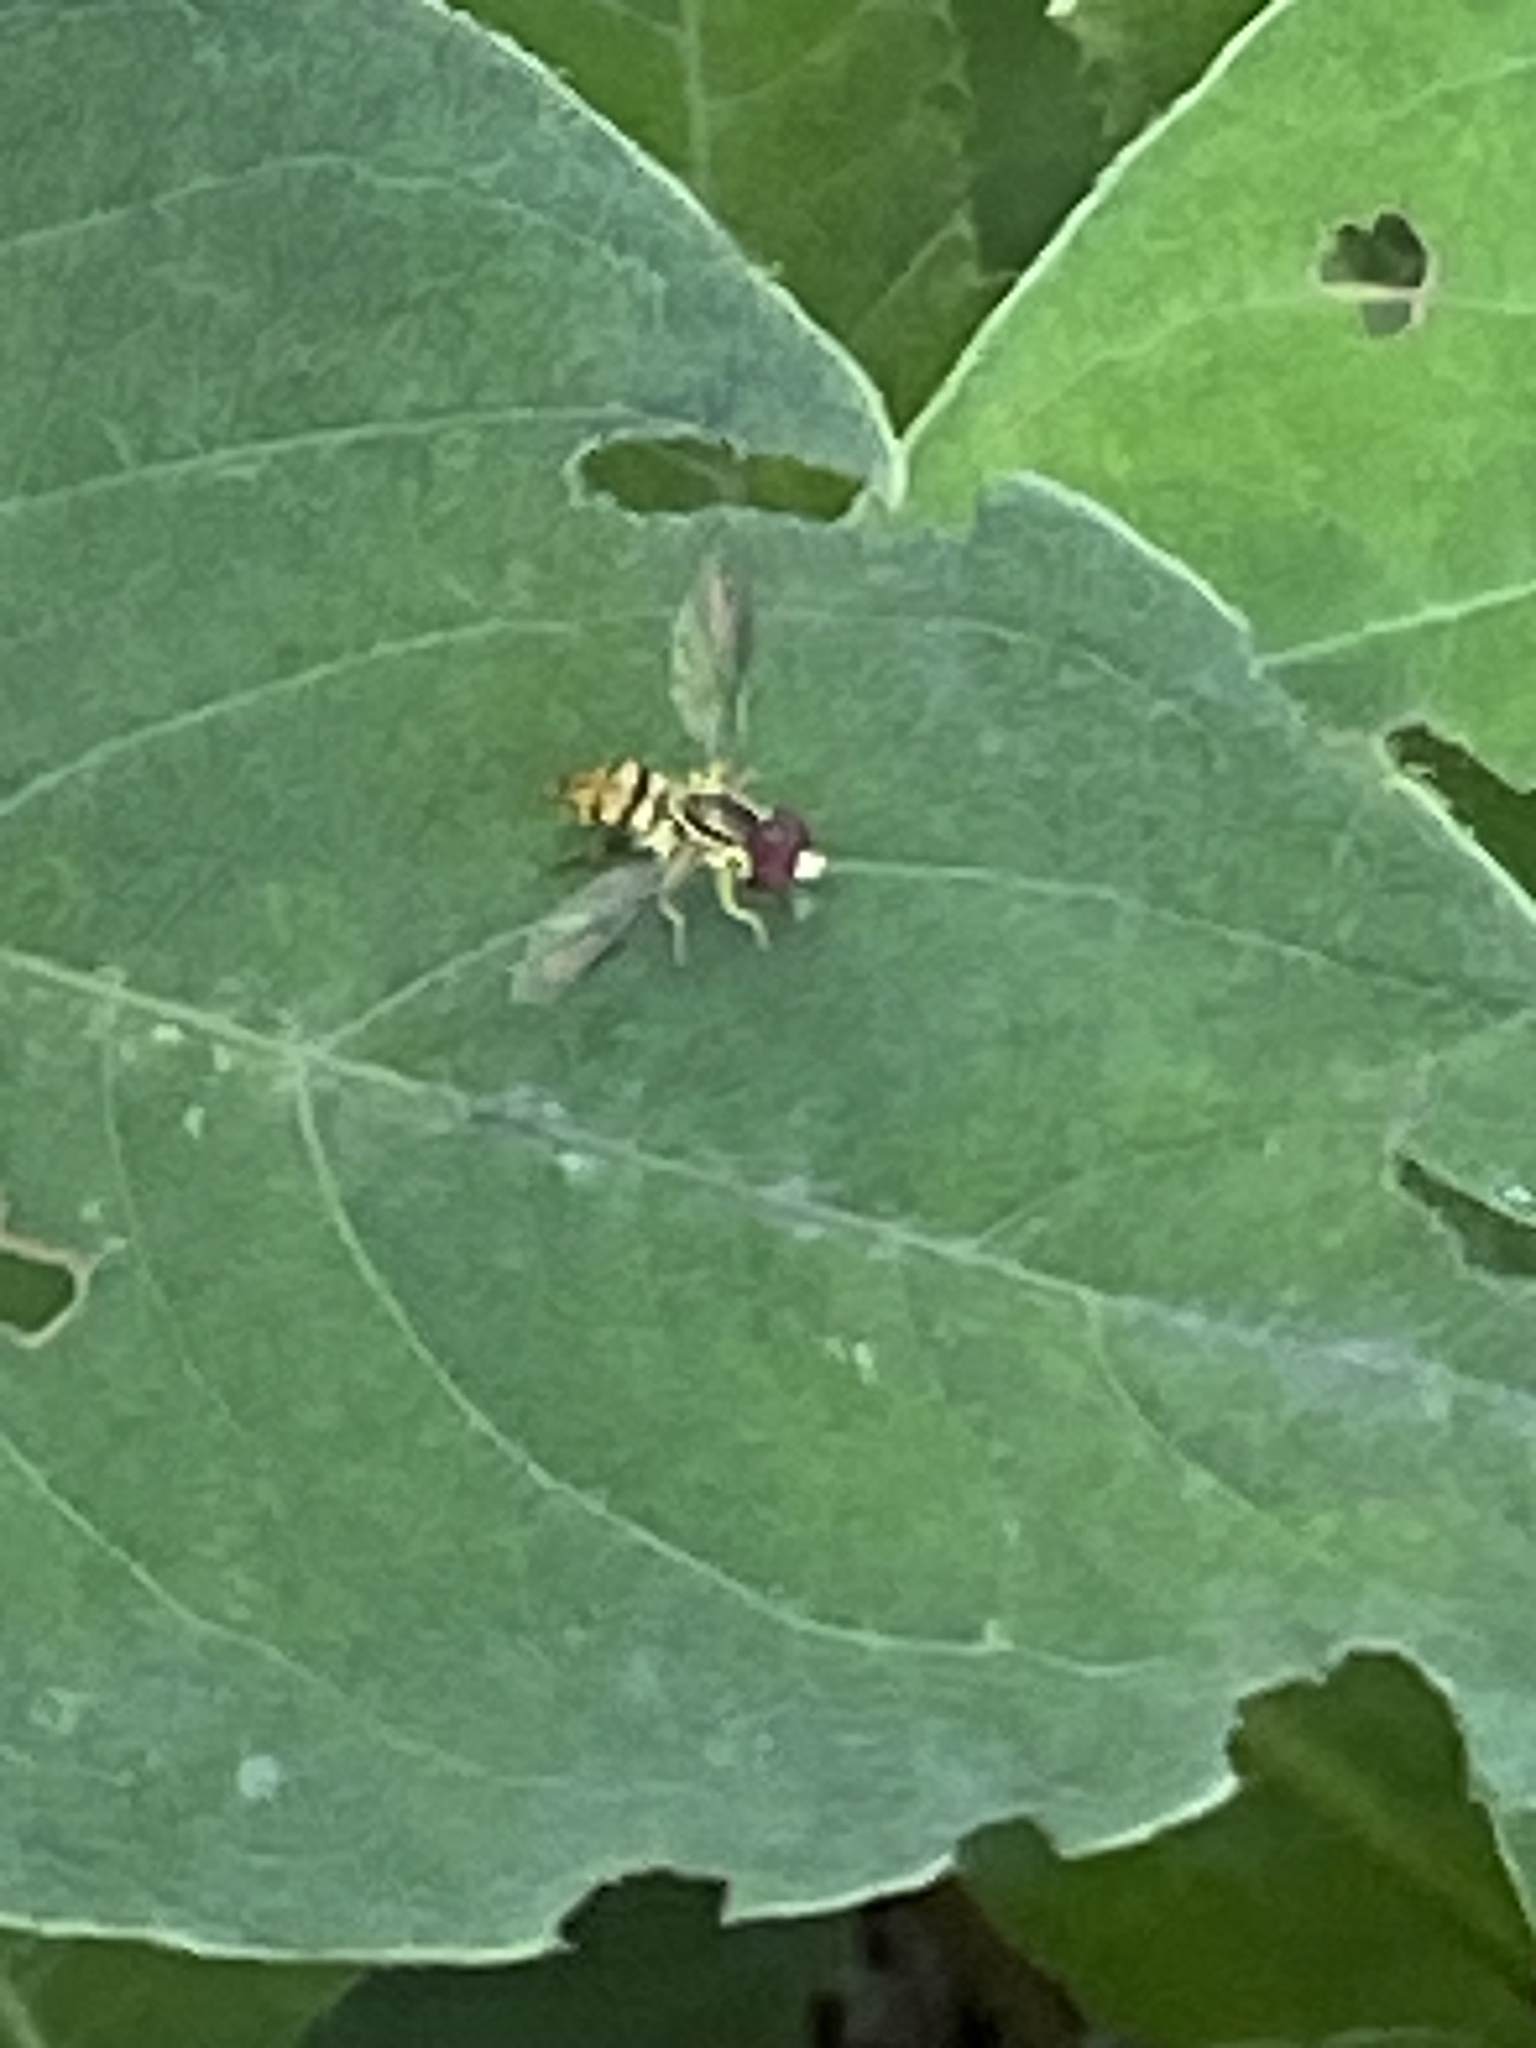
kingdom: Animalia
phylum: Arthropoda
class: Insecta
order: Diptera
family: Syrphidae
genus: Toxomerus
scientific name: Toxomerus geminatus
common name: Eastern calligrapher
